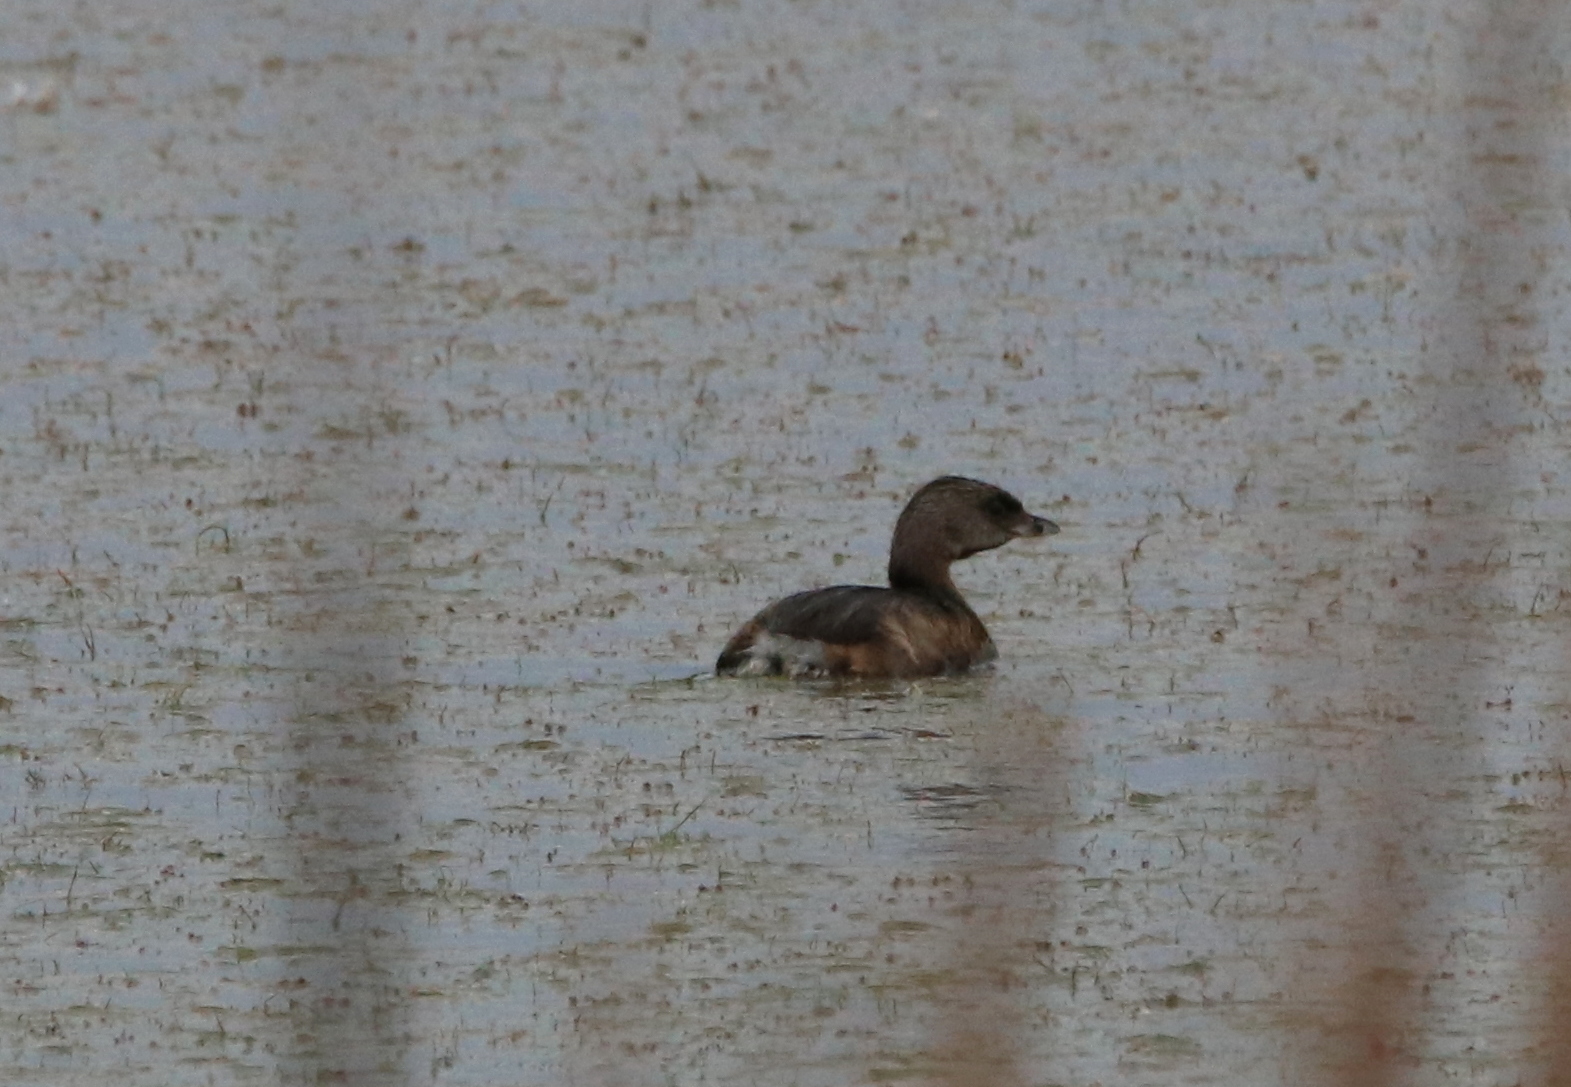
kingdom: Animalia
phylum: Chordata
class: Aves
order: Podicipediformes
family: Podicipedidae
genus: Podilymbus
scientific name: Podilymbus podiceps
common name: Pied-billed grebe
